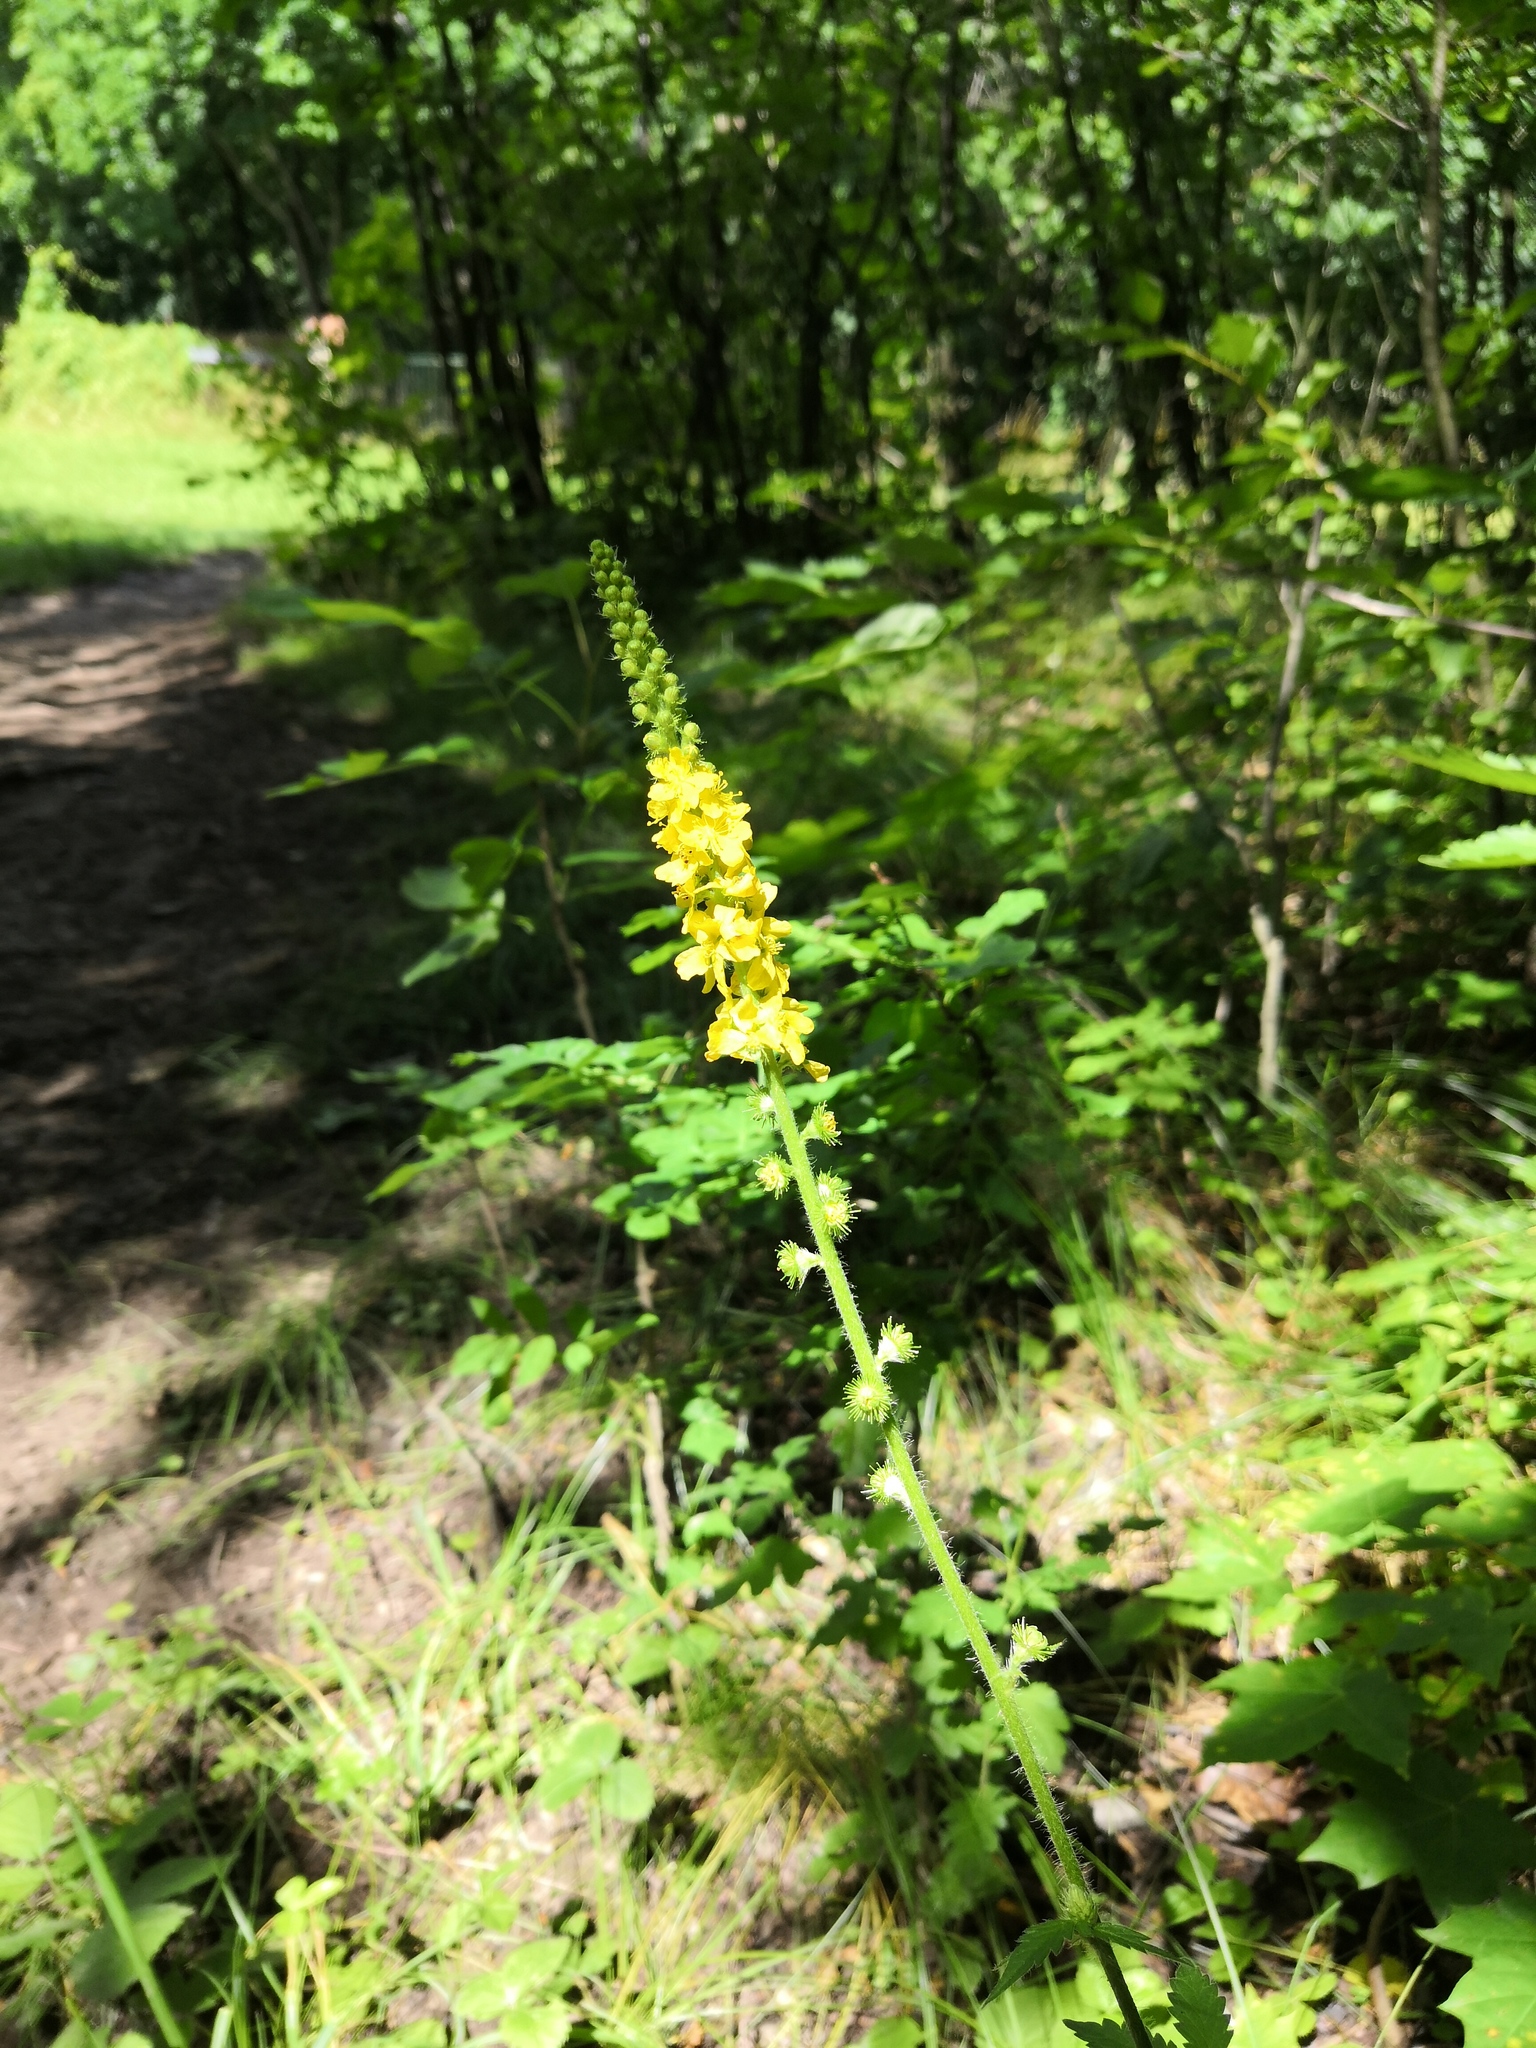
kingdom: Plantae
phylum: Tracheophyta
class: Magnoliopsida
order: Rosales
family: Rosaceae
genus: Agrimonia
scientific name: Agrimonia eupatoria
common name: Agrimony
